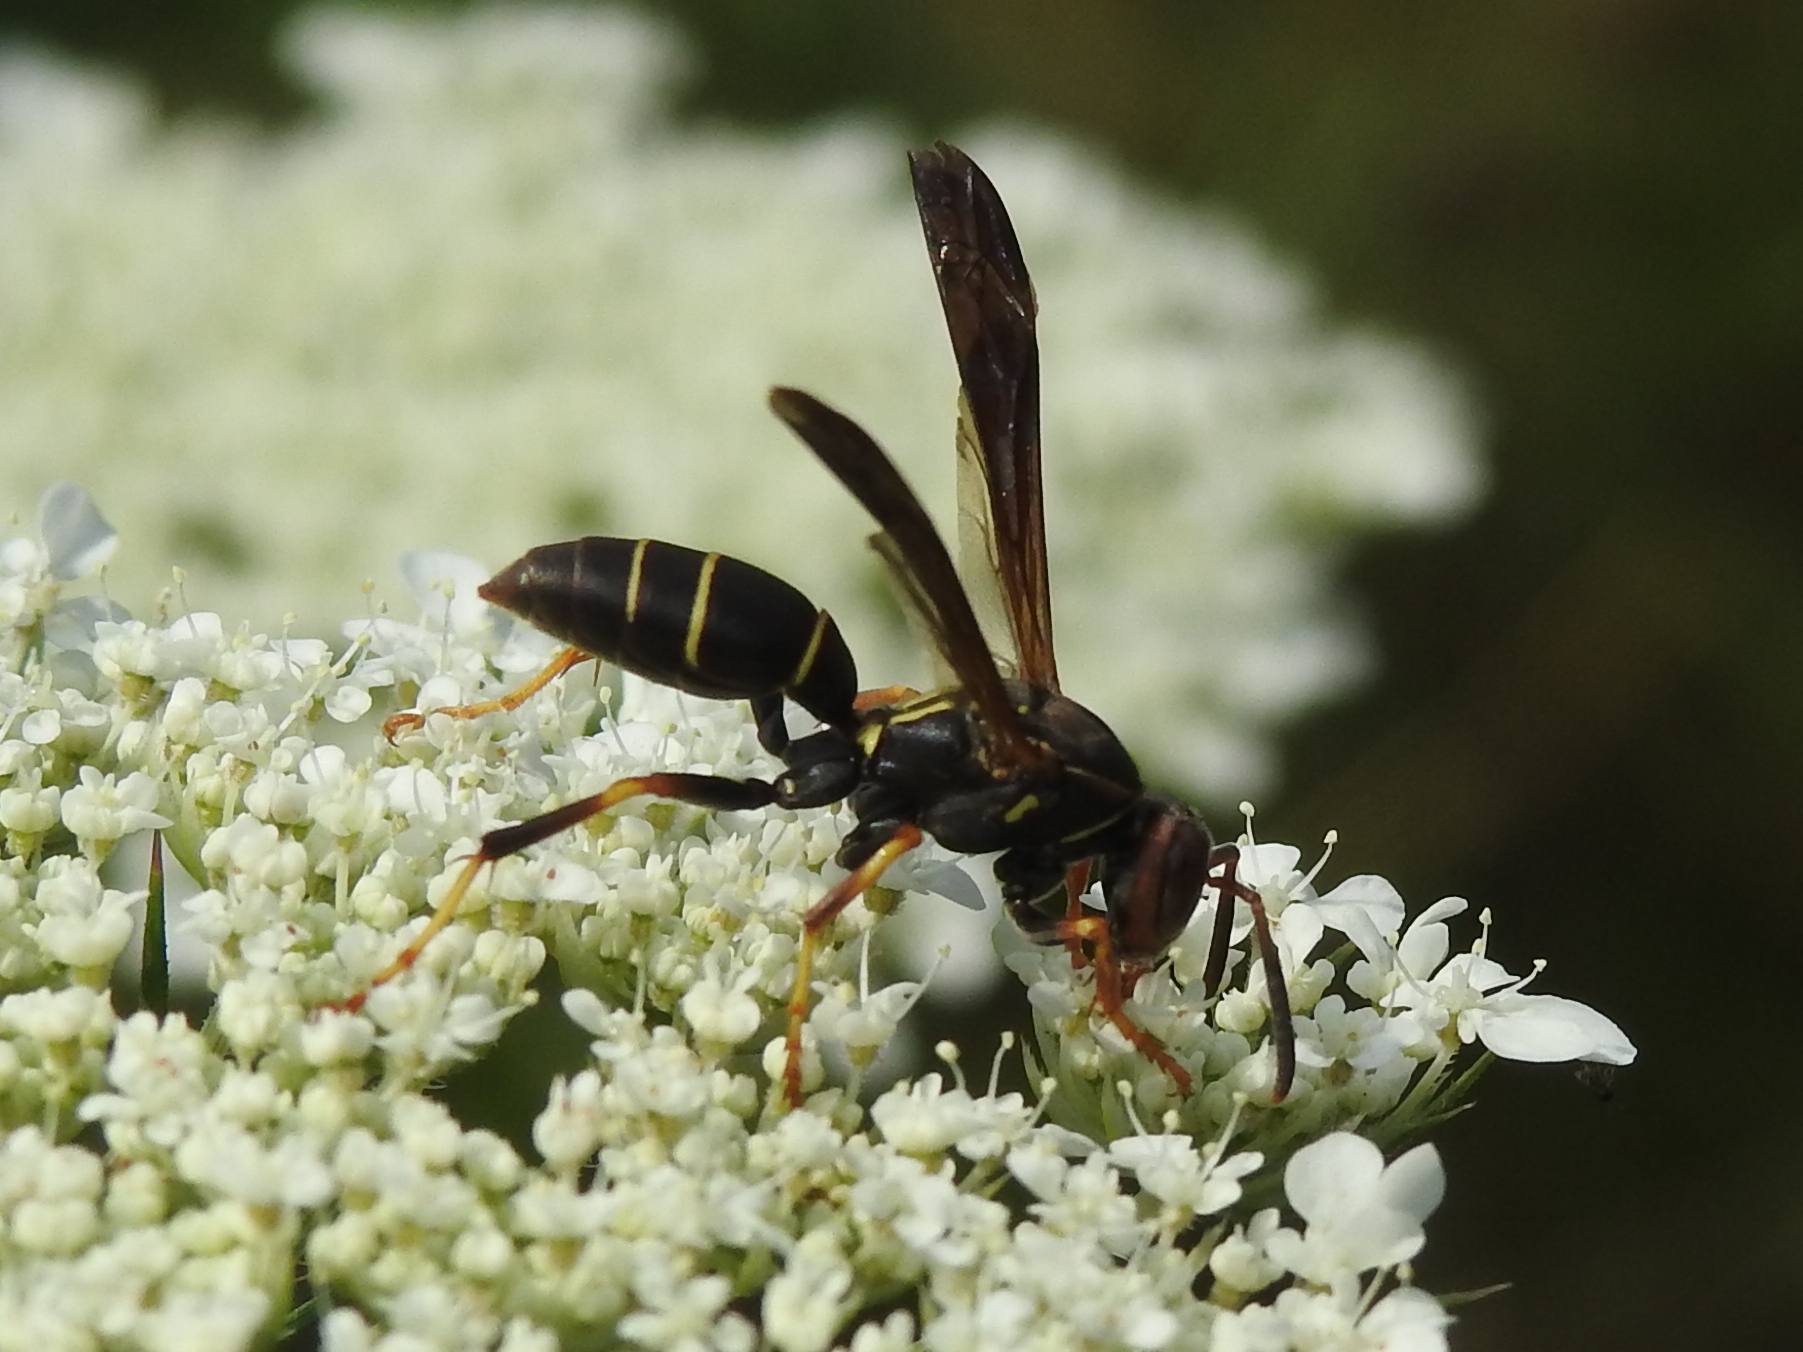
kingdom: Animalia
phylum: Arthropoda
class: Insecta
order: Hymenoptera
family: Eumenidae
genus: Polistes
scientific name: Polistes fuscatus
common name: Dark paper wasp
